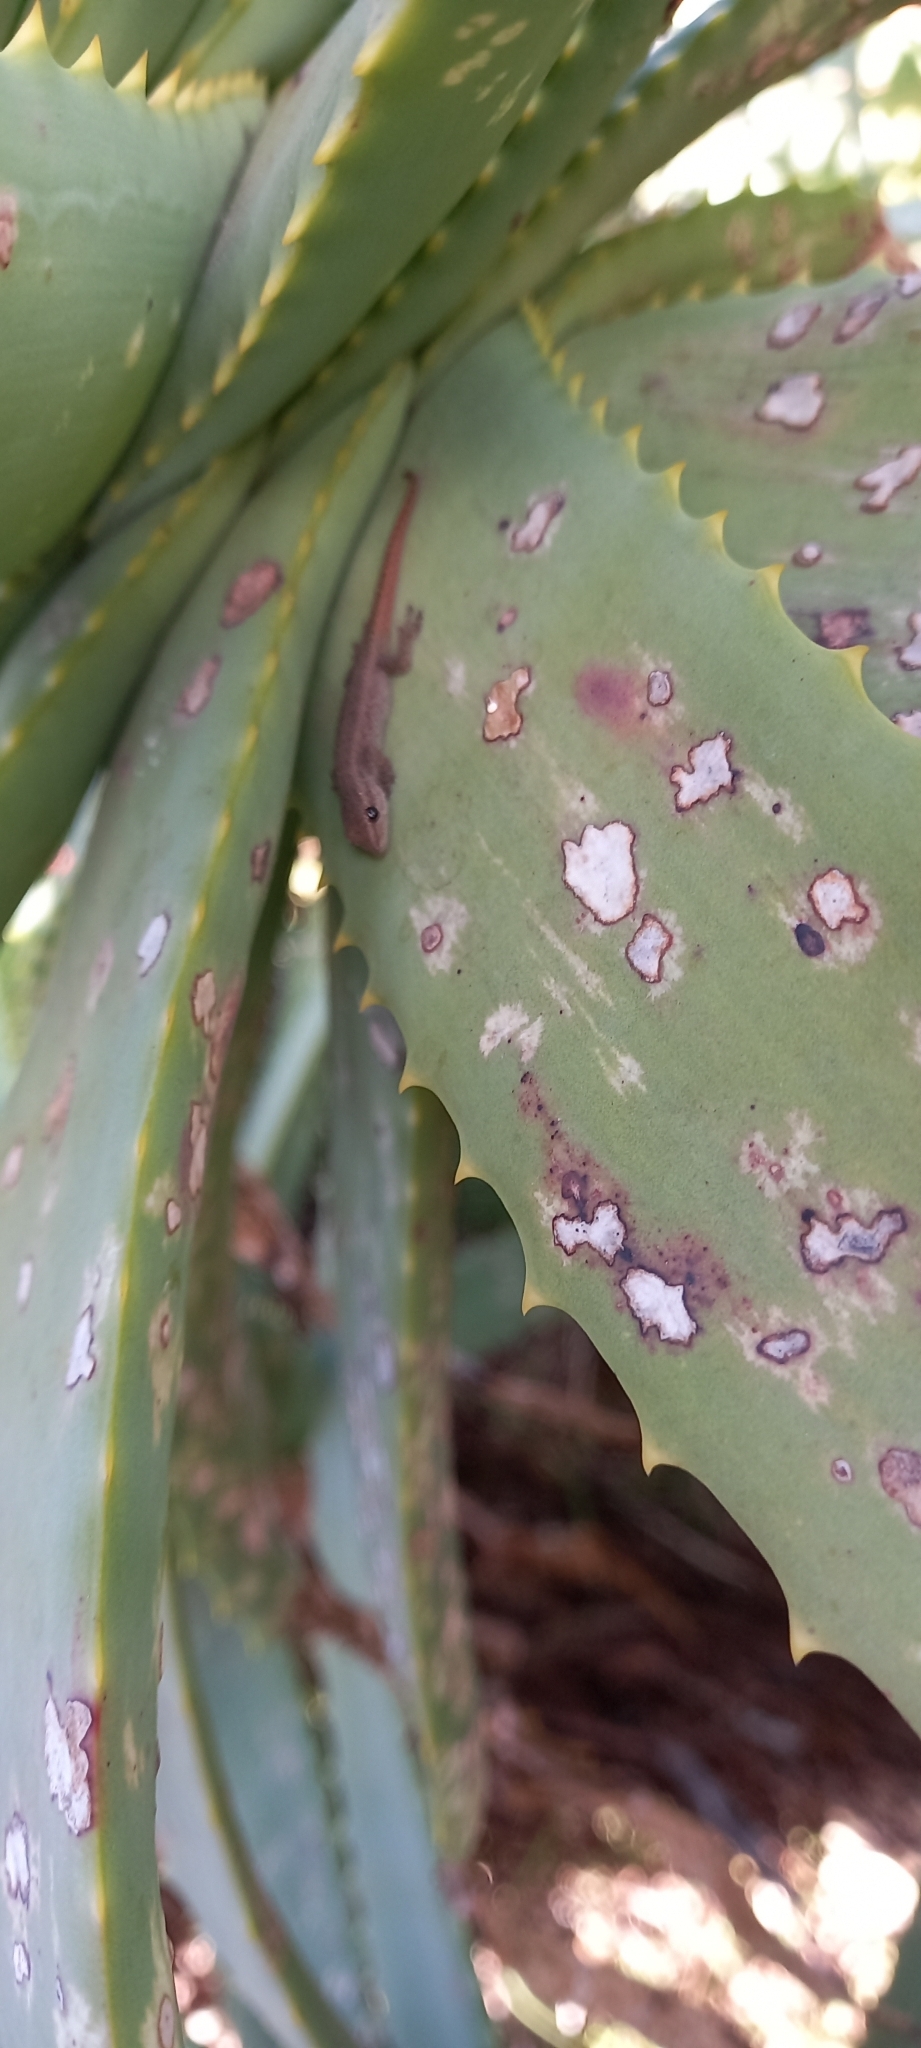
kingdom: Animalia
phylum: Chordata
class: Squamata
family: Gekkonidae
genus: Lygodactylus
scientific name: Lygodactylus capensis
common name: Cape dwarf gecko
